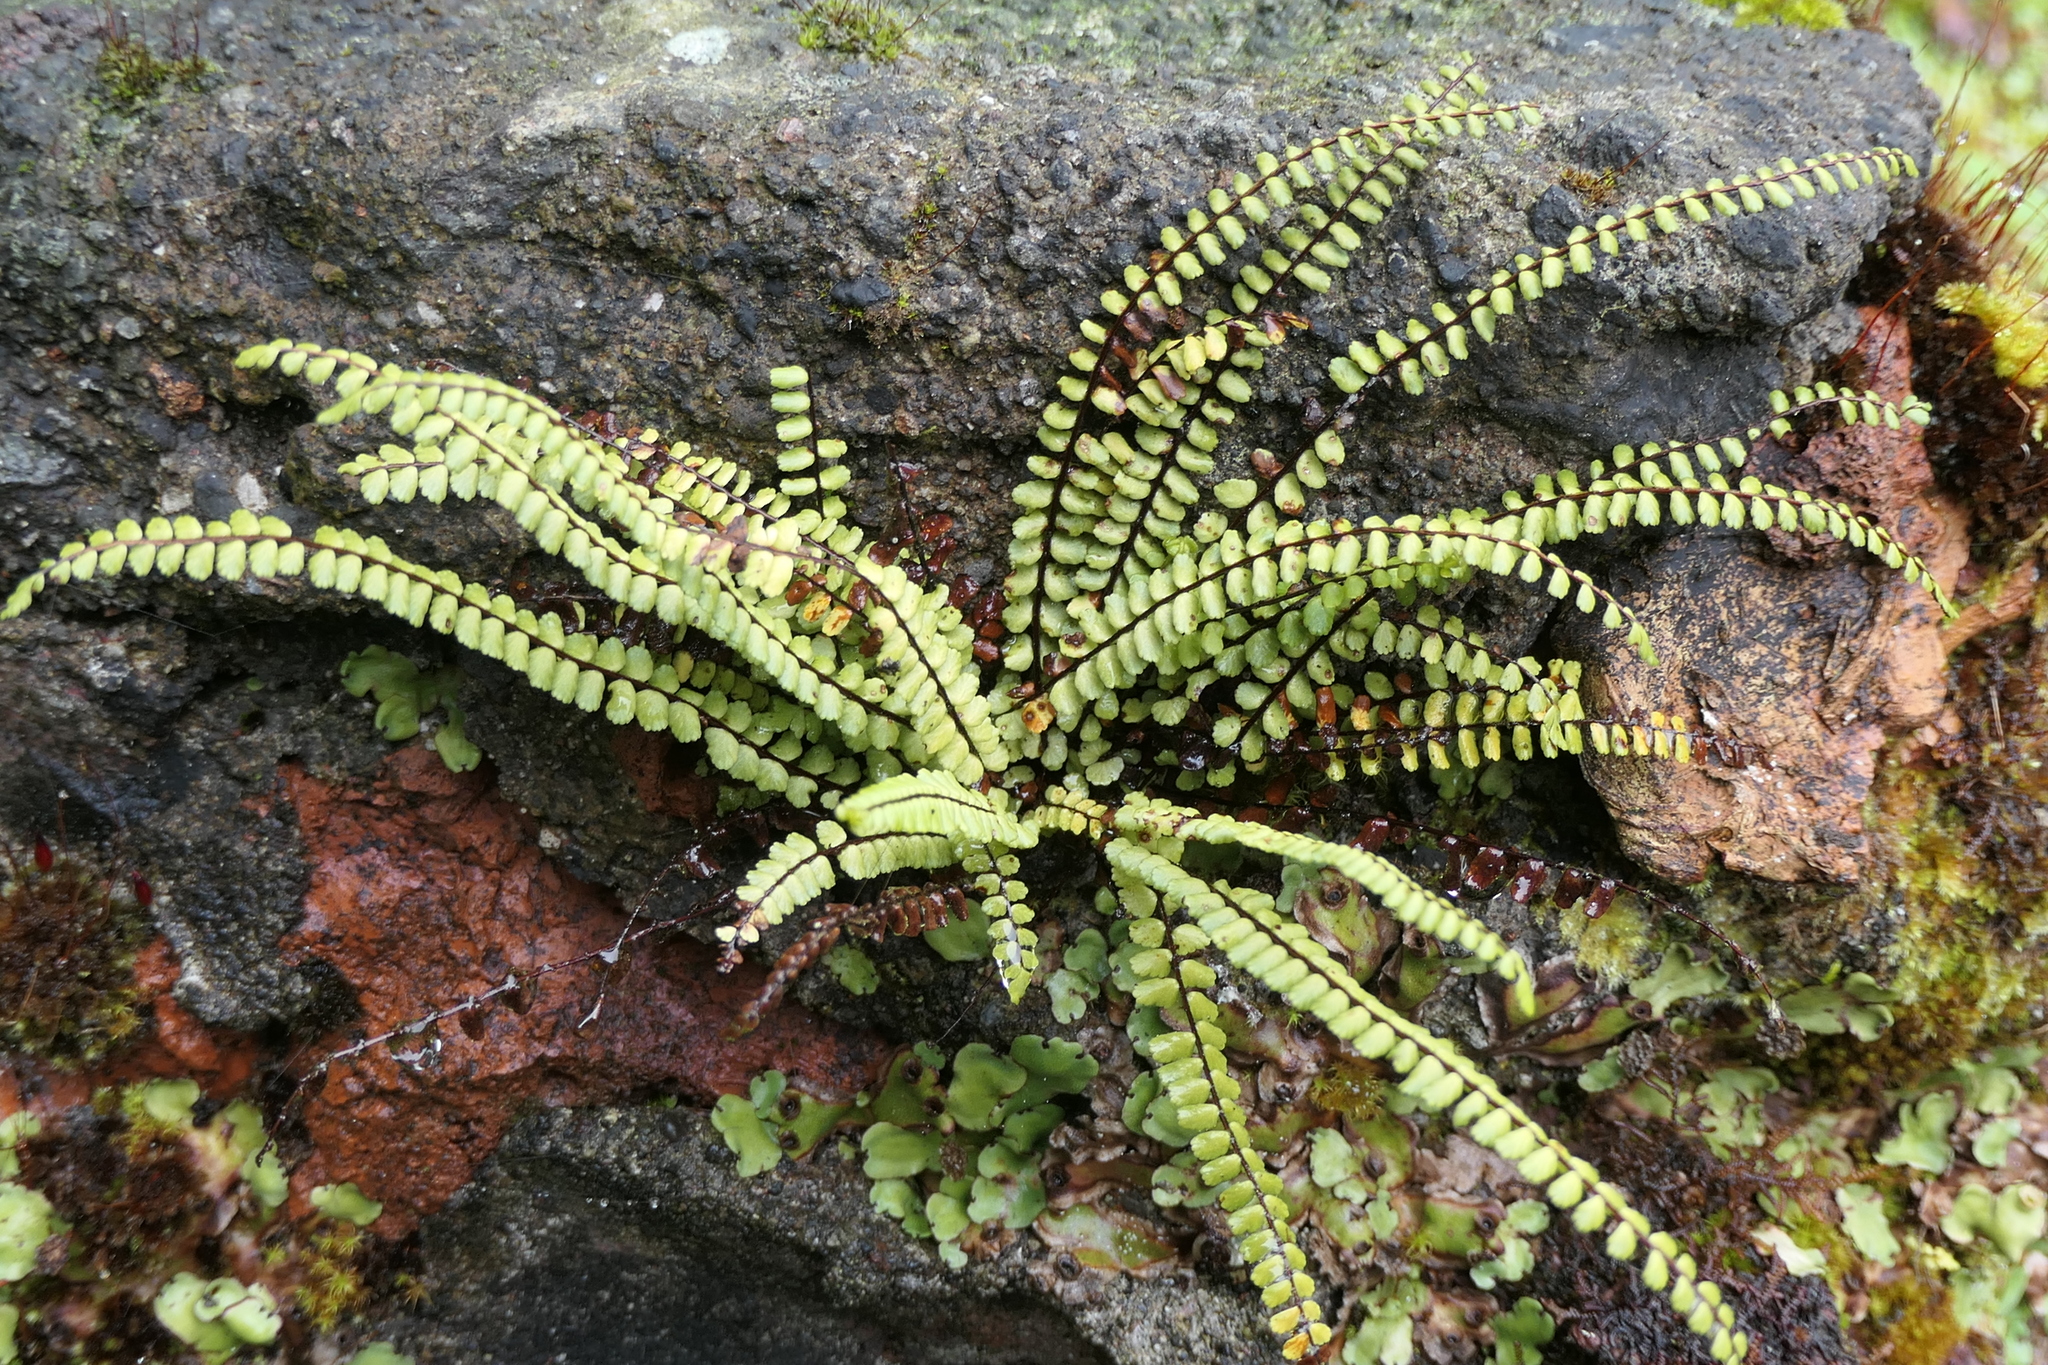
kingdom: Plantae
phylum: Tracheophyta
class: Polypodiopsida
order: Polypodiales
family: Aspleniaceae
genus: Asplenium
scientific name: Asplenium trichomanes
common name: Maidenhair spleenwort
